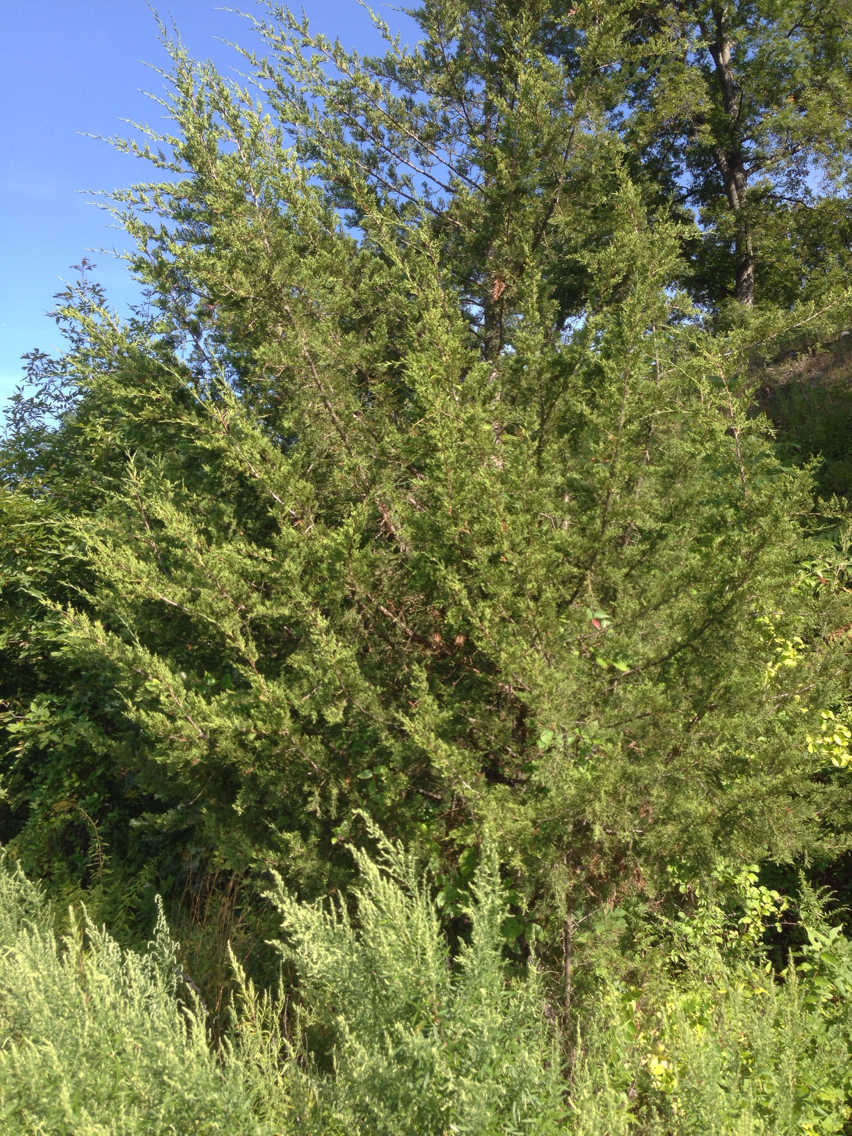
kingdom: Plantae
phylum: Tracheophyta
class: Pinopsida
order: Pinales
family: Cupressaceae
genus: Juniperus
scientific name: Juniperus virginiana
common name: Red juniper
